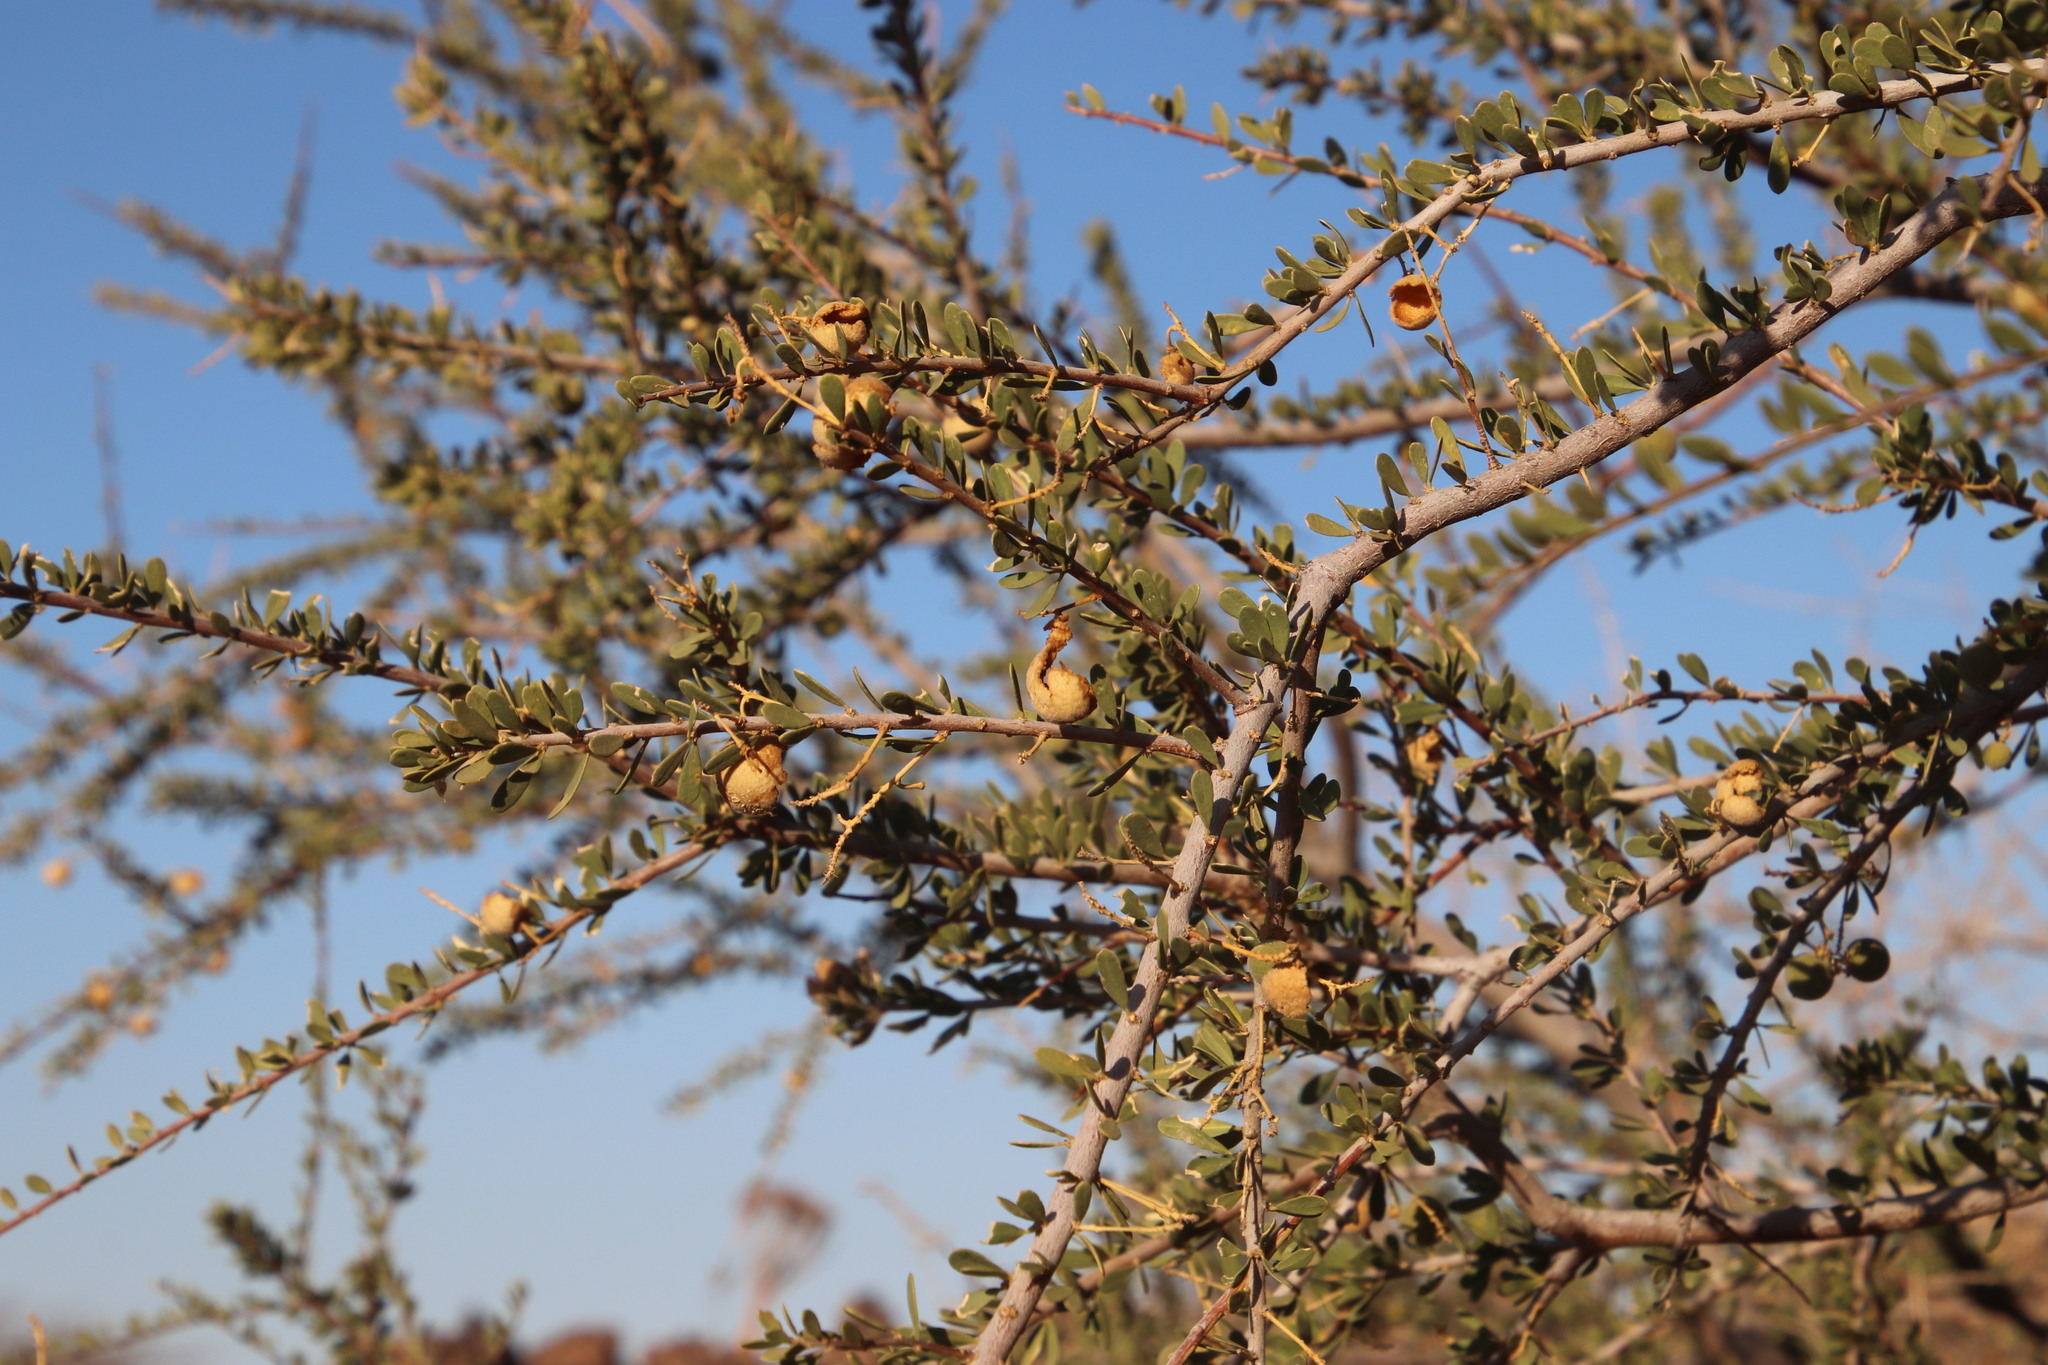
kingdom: Plantae
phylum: Tracheophyta
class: Magnoliopsida
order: Brassicales
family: Capparaceae
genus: Boscia
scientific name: Boscia foetida
